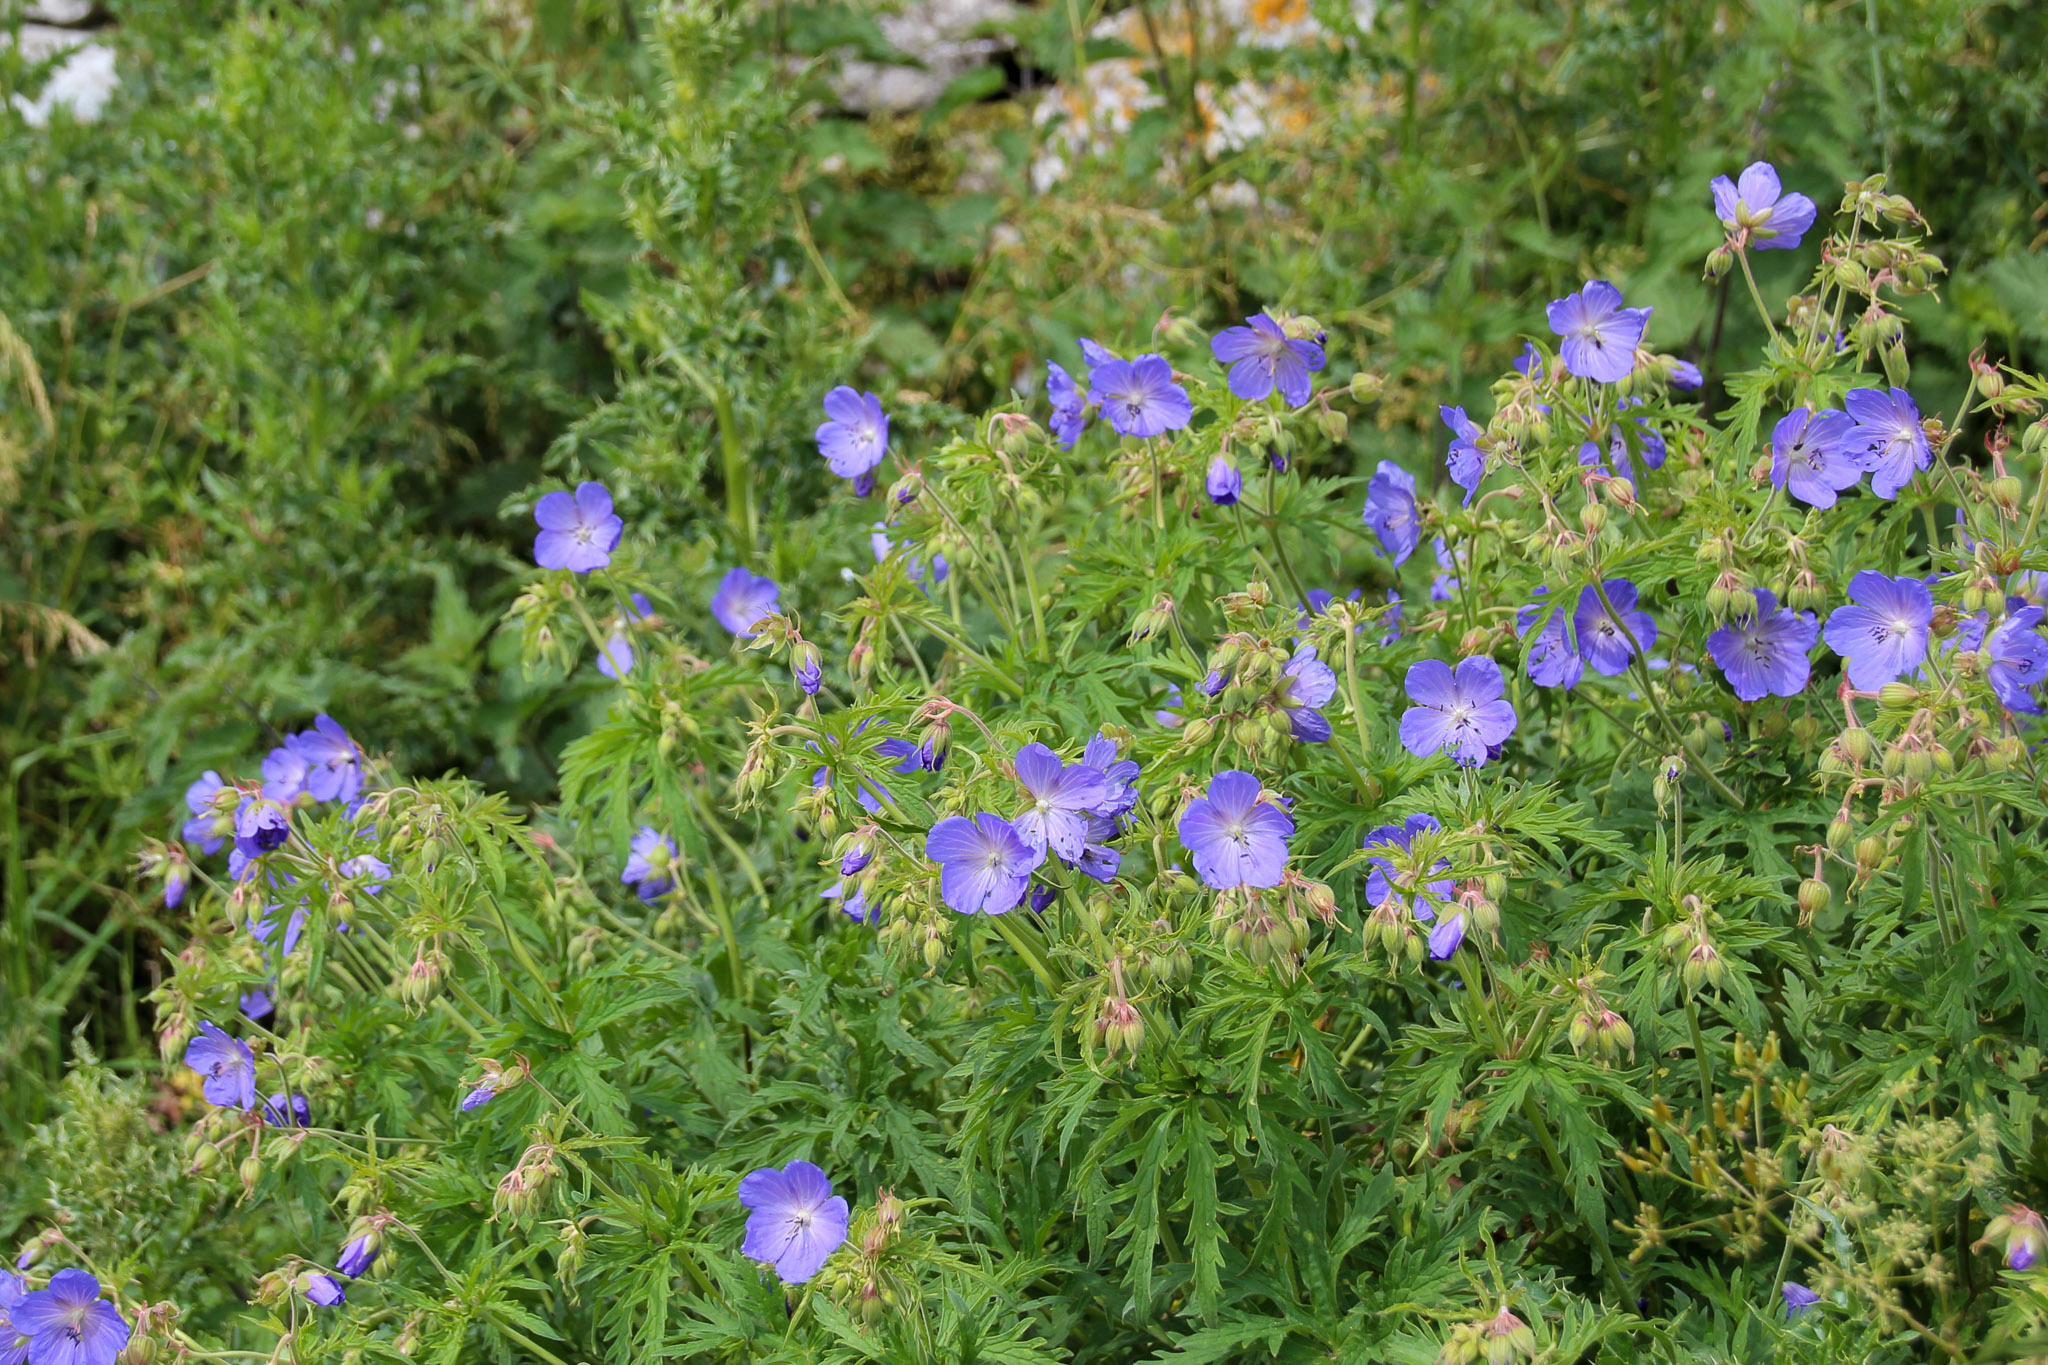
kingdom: Plantae
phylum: Tracheophyta
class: Magnoliopsida
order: Geraniales
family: Geraniaceae
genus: Geranium
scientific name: Geranium pratense
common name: Meadow crane's-bill
